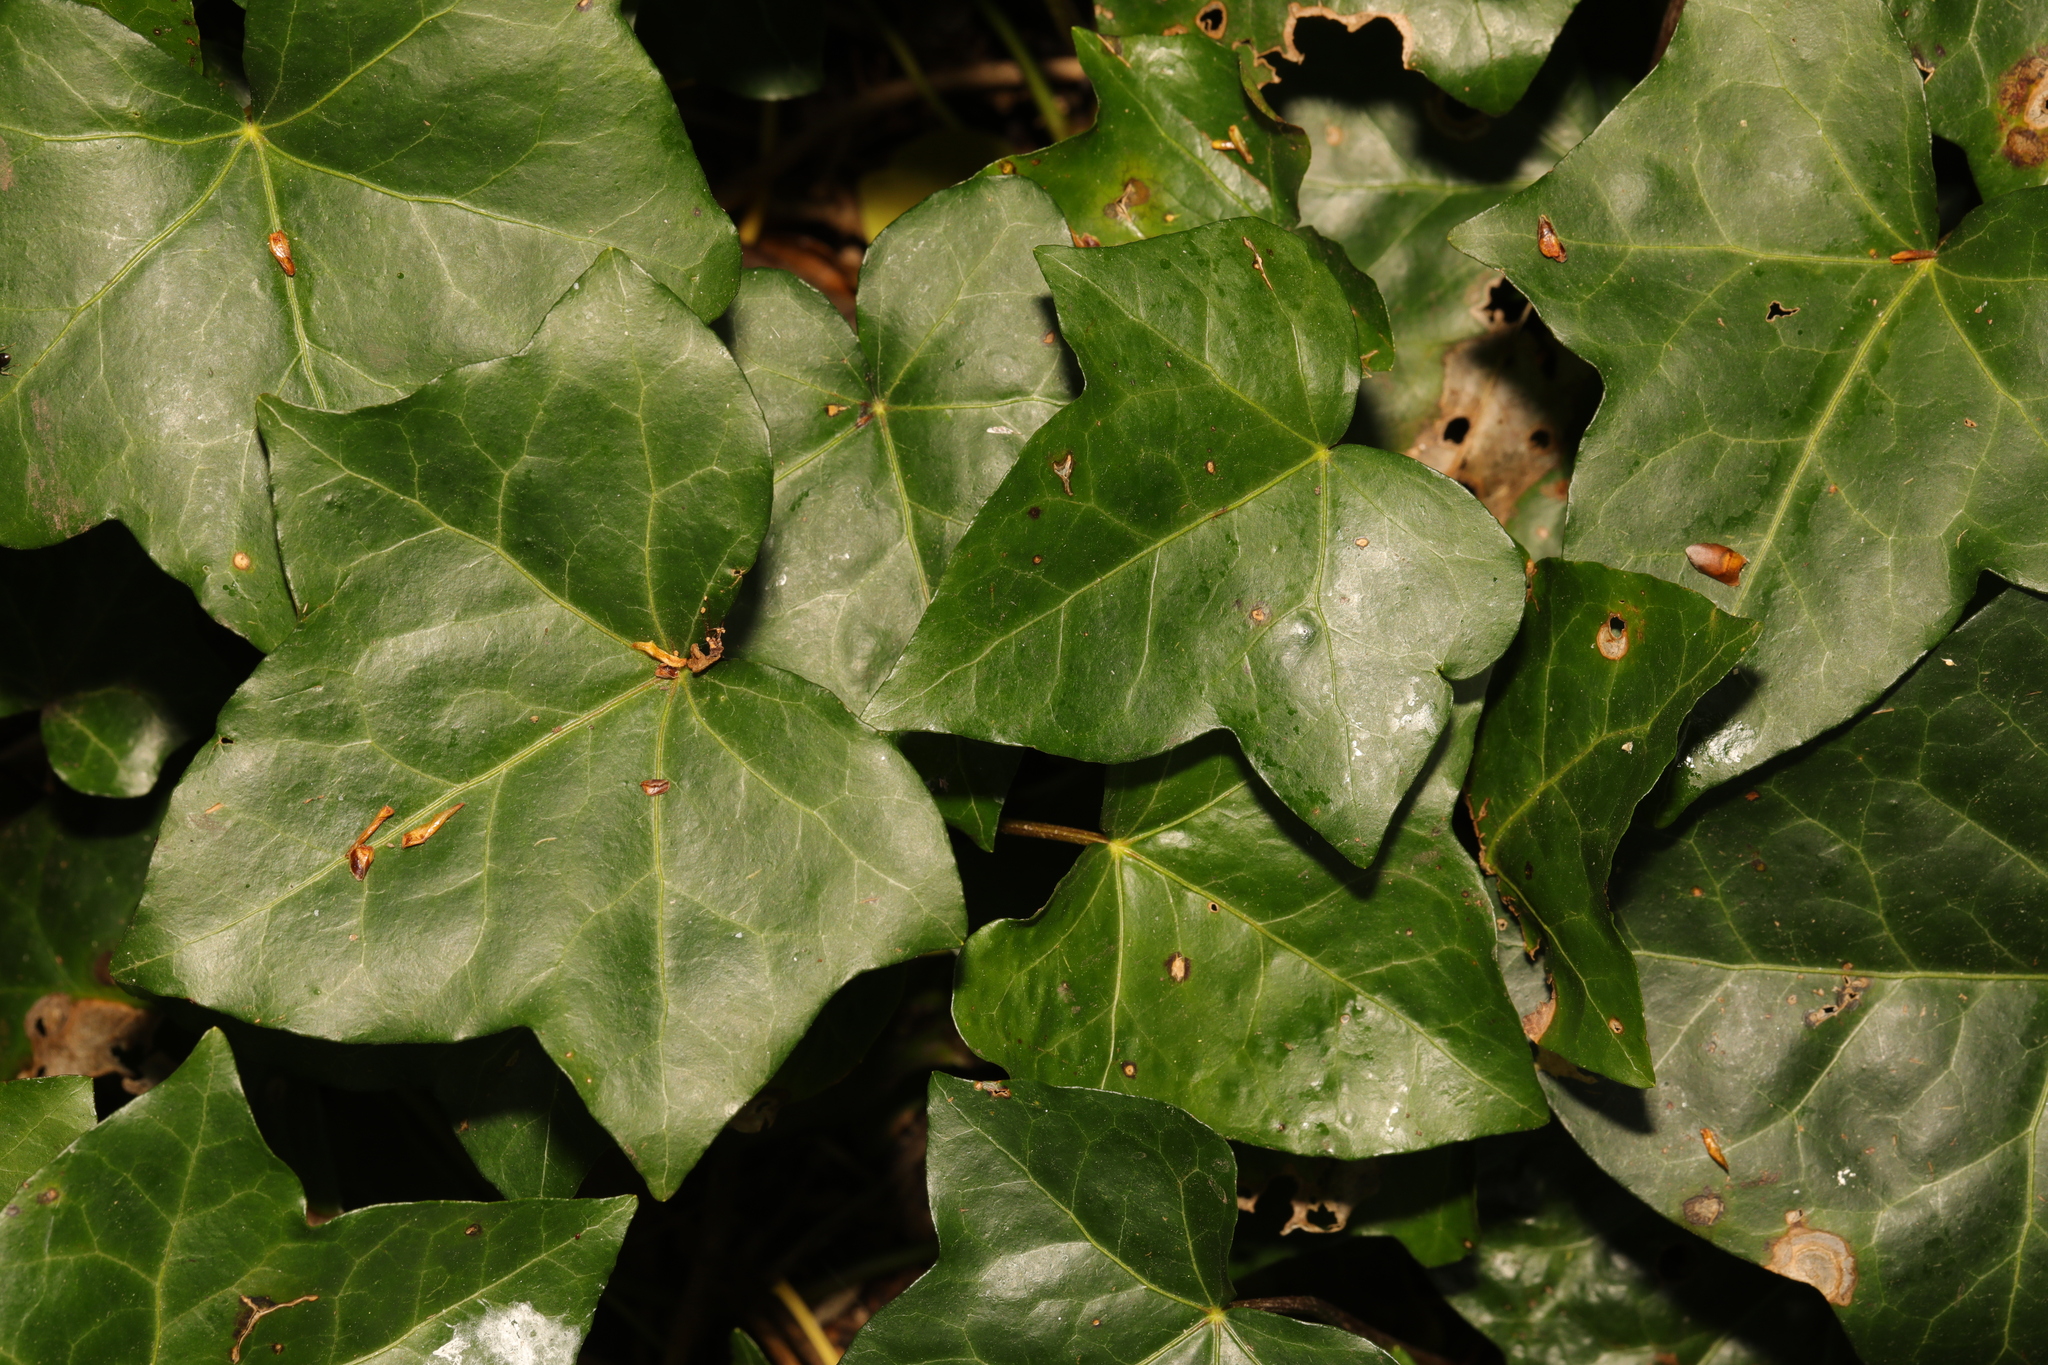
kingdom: Plantae
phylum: Tracheophyta
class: Magnoliopsida
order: Apiales
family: Araliaceae
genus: Hedera
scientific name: Hedera helix
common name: Ivy
